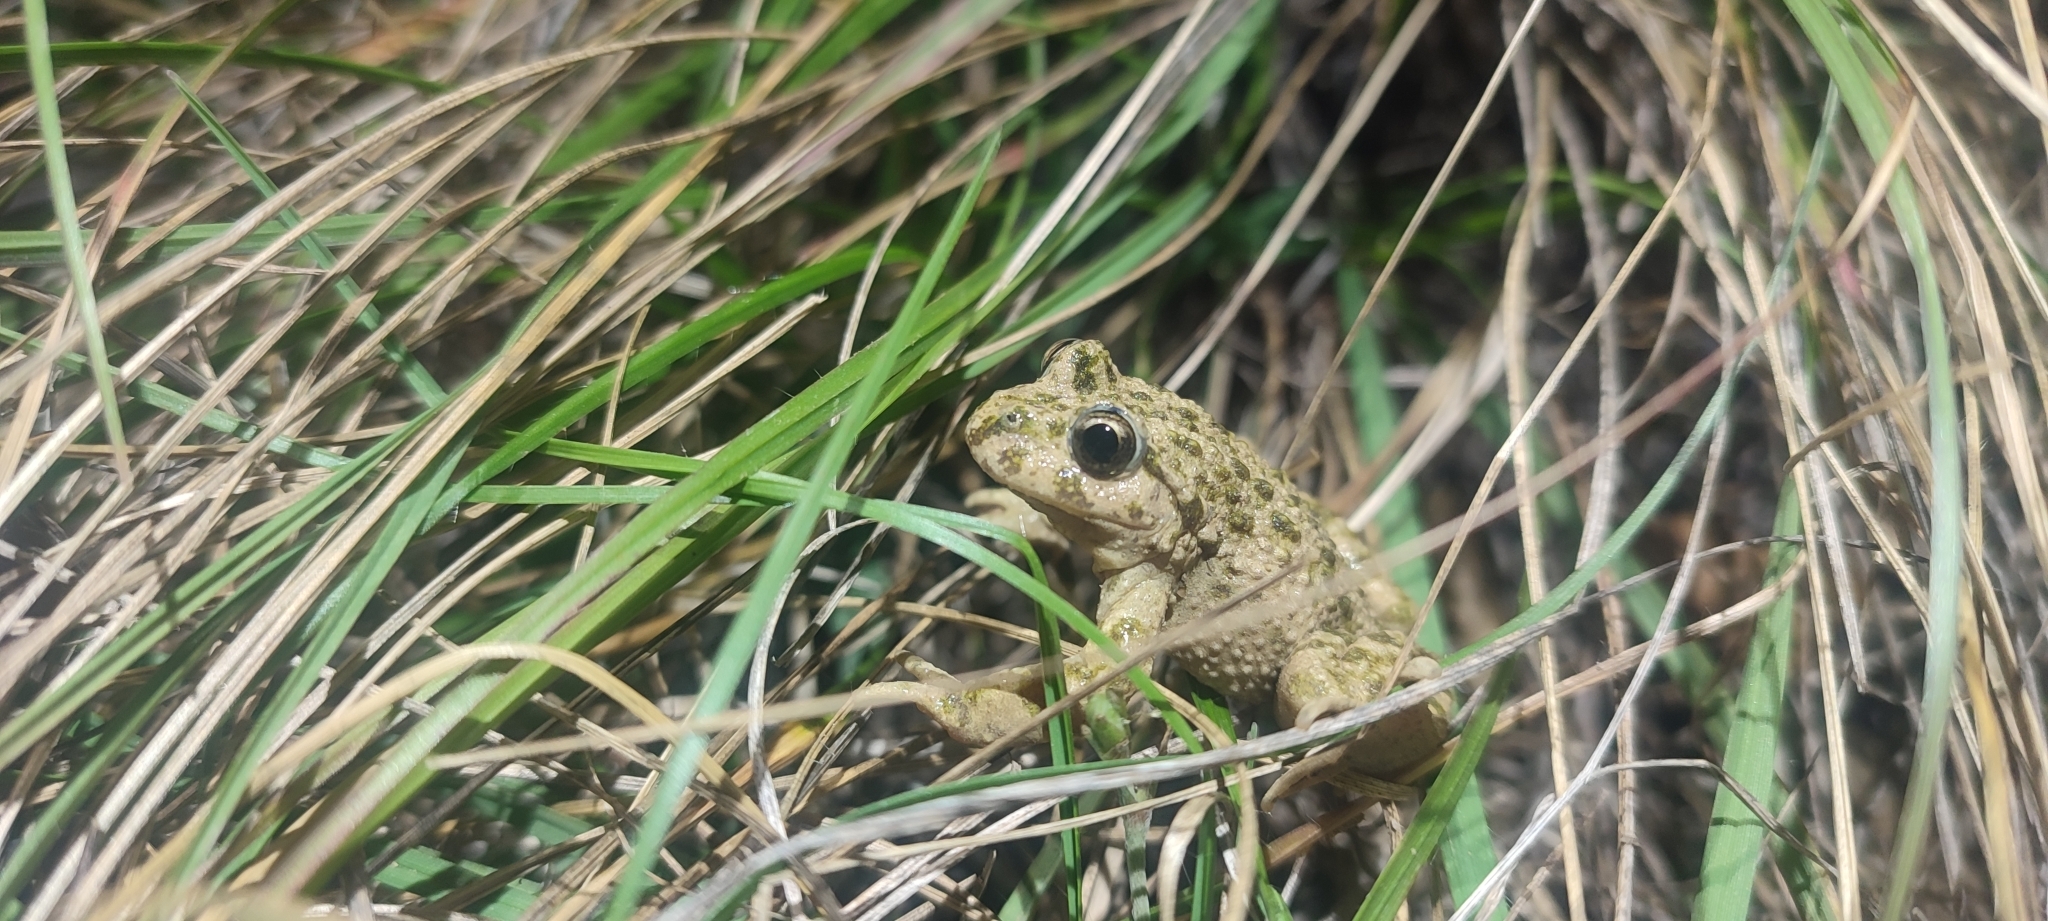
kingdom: Animalia
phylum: Chordata
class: Amphibia
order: Anura
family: Pelodytidae
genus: Pelodytes
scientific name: Pelodytes punctatus
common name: Parsley frog
